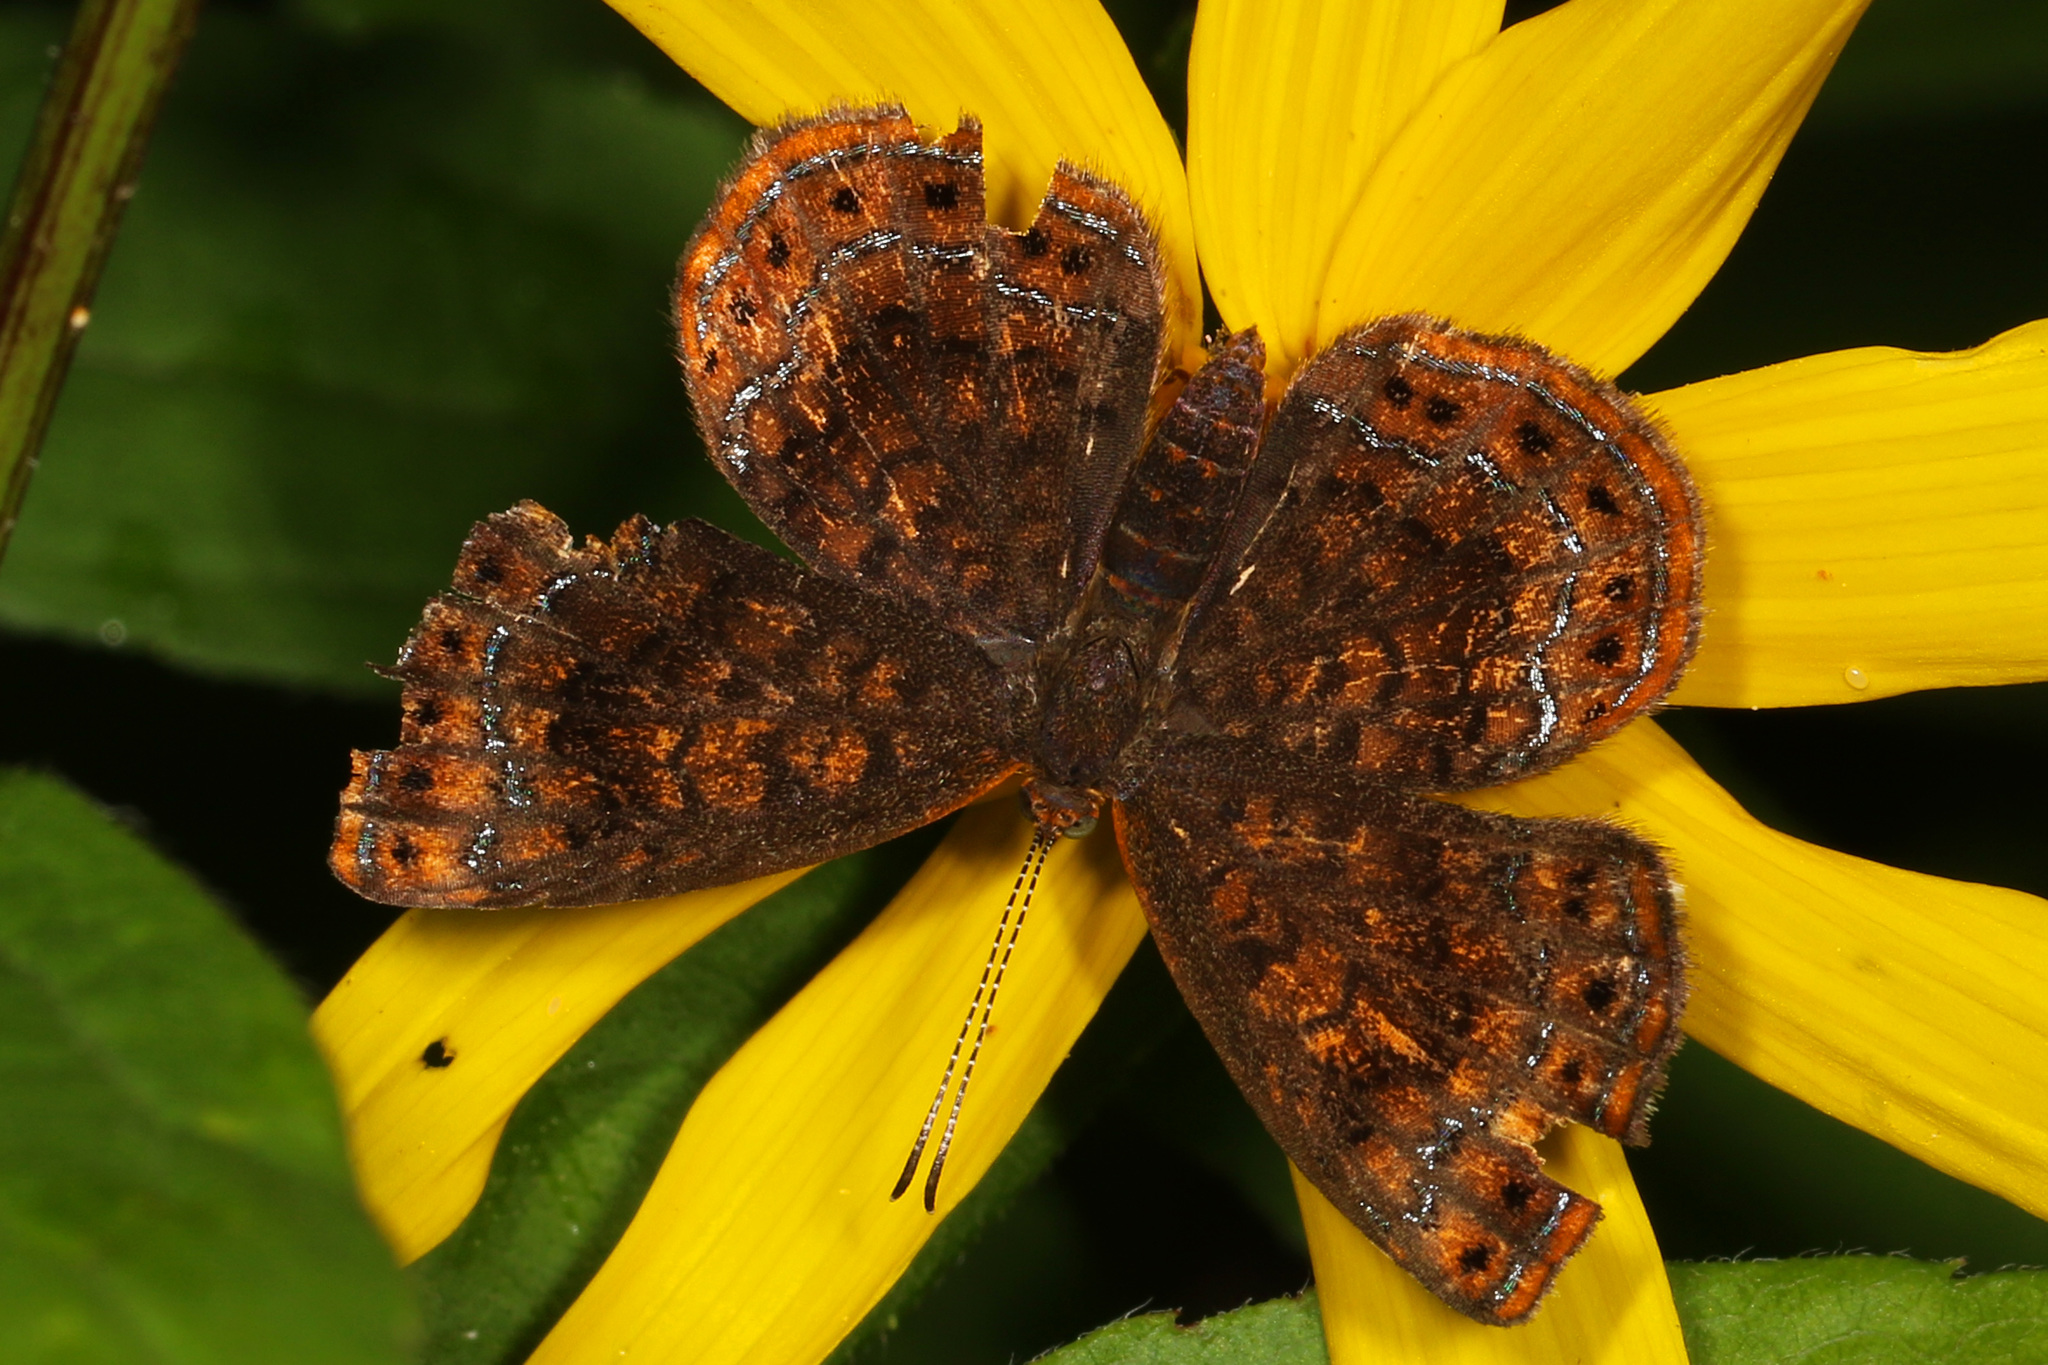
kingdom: Animalia
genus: Calephelis
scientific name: Calephelis borealis
